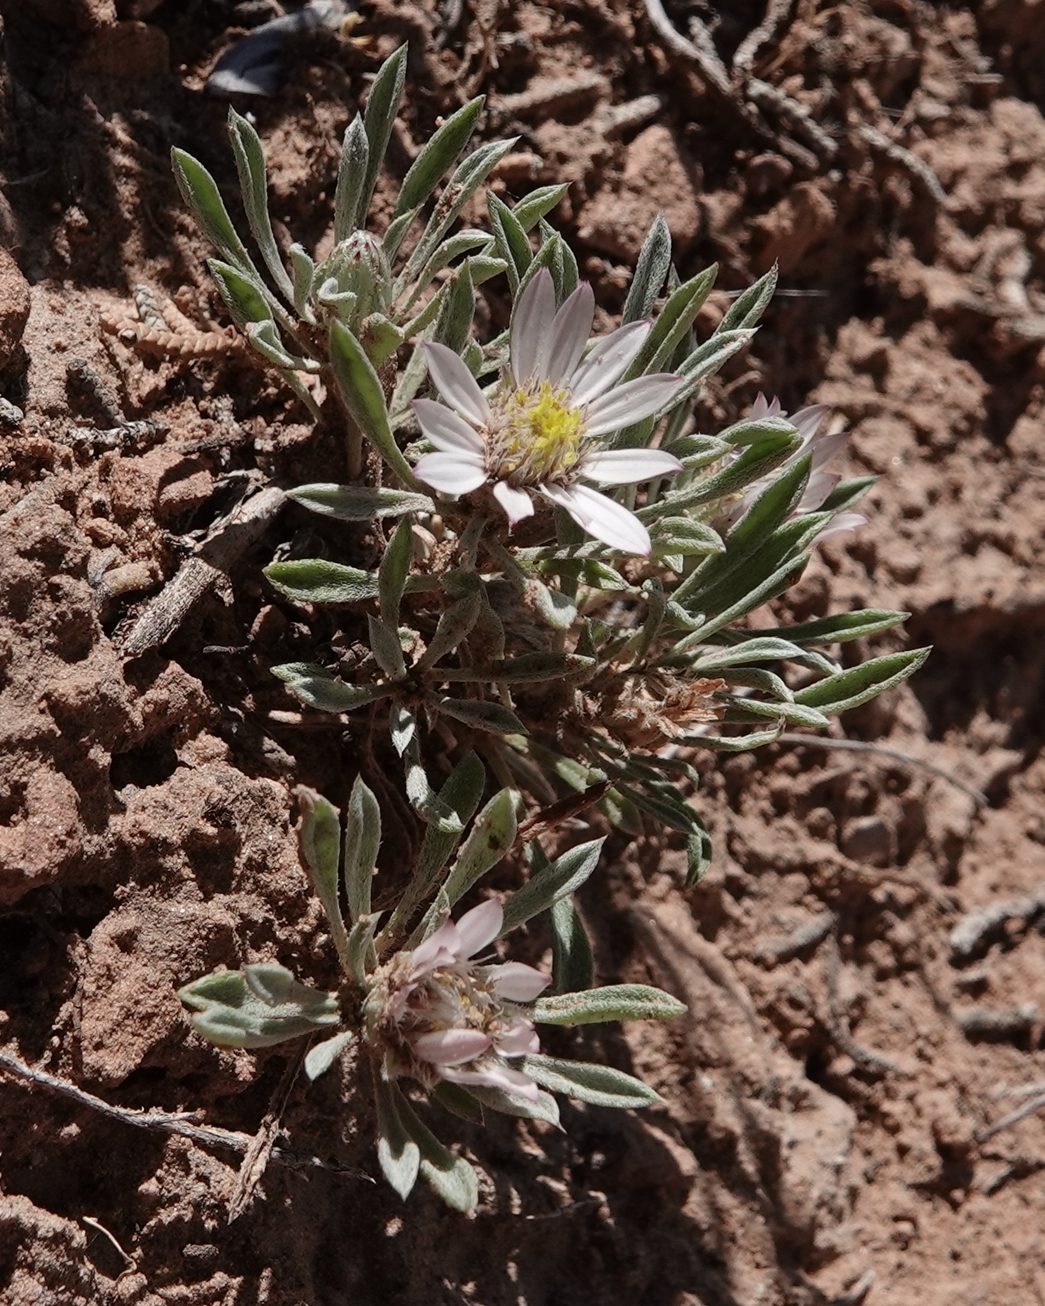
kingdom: Plantae
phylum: Tracheophyta
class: Magnoliopsida
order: Asterales
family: Asteraceae
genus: Townsendia
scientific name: Townsendia incana
